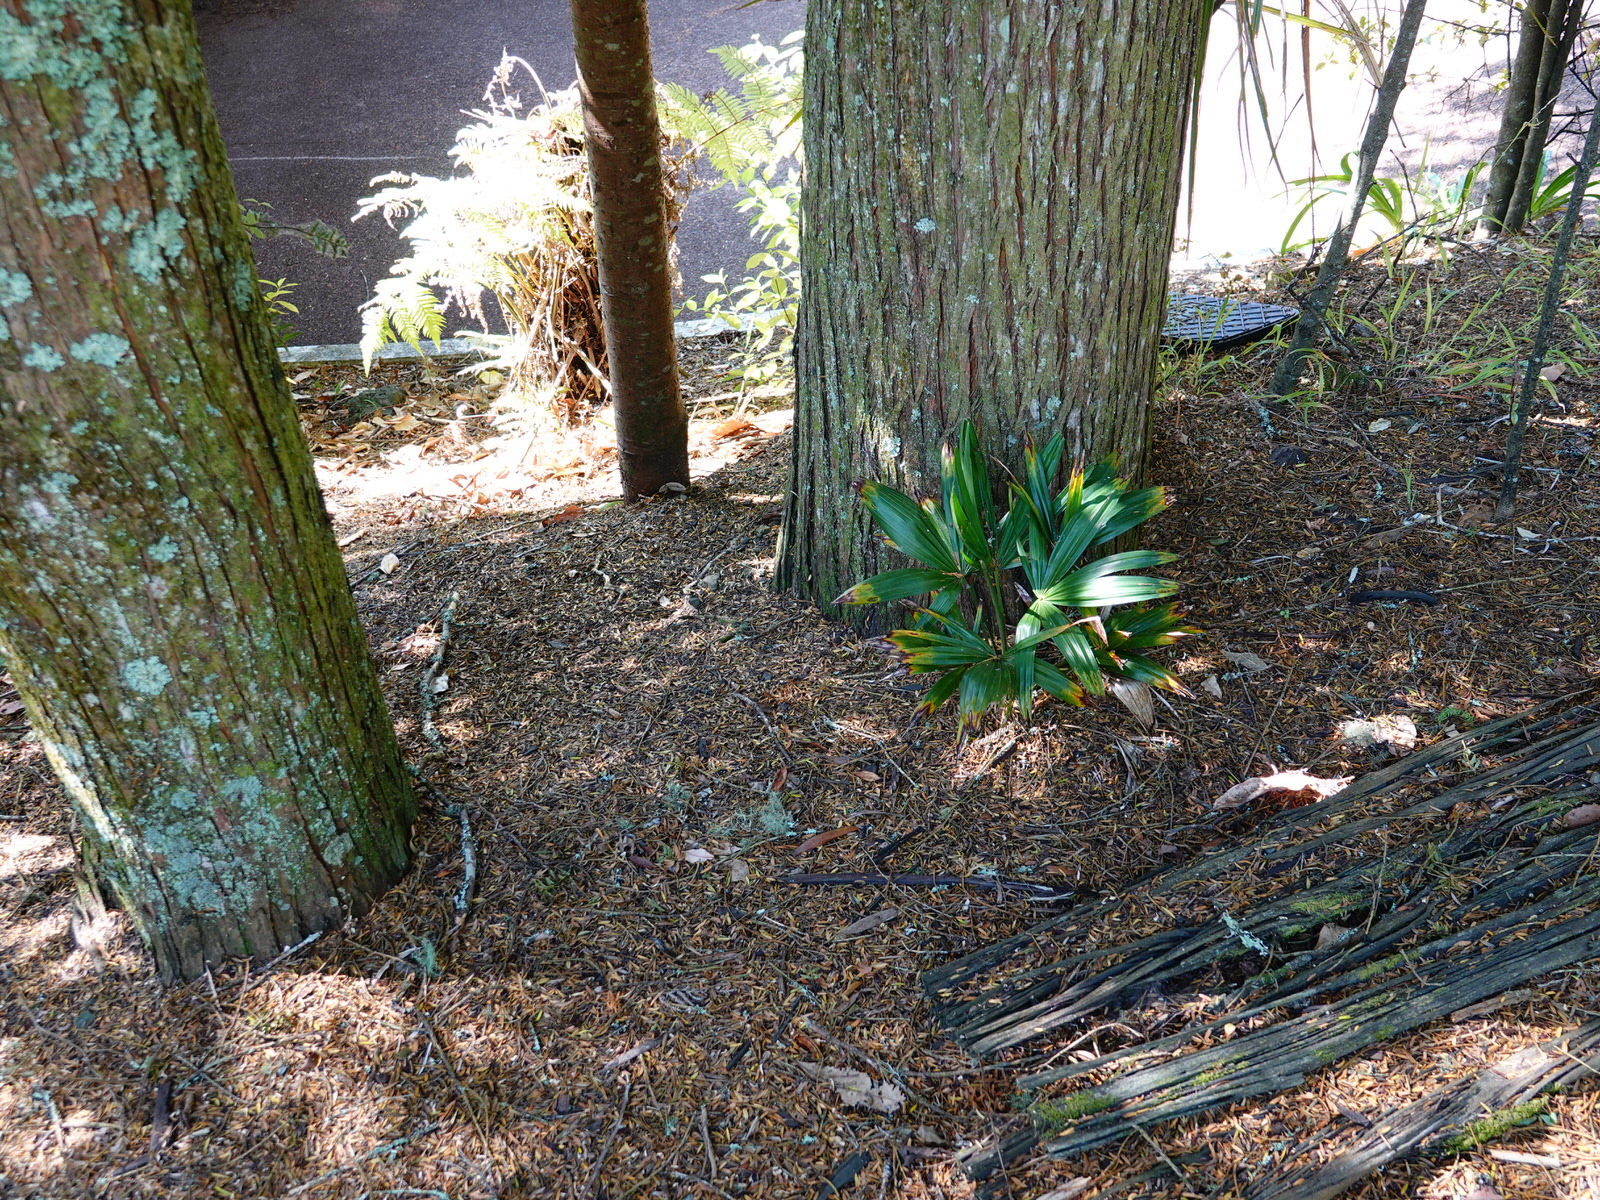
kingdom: Plantae
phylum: Tracheophyta
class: Liliopsida
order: Arecales
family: Arecaceae
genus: Trachycarpus
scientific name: Trachycarpus fortunei
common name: Chusan palm
